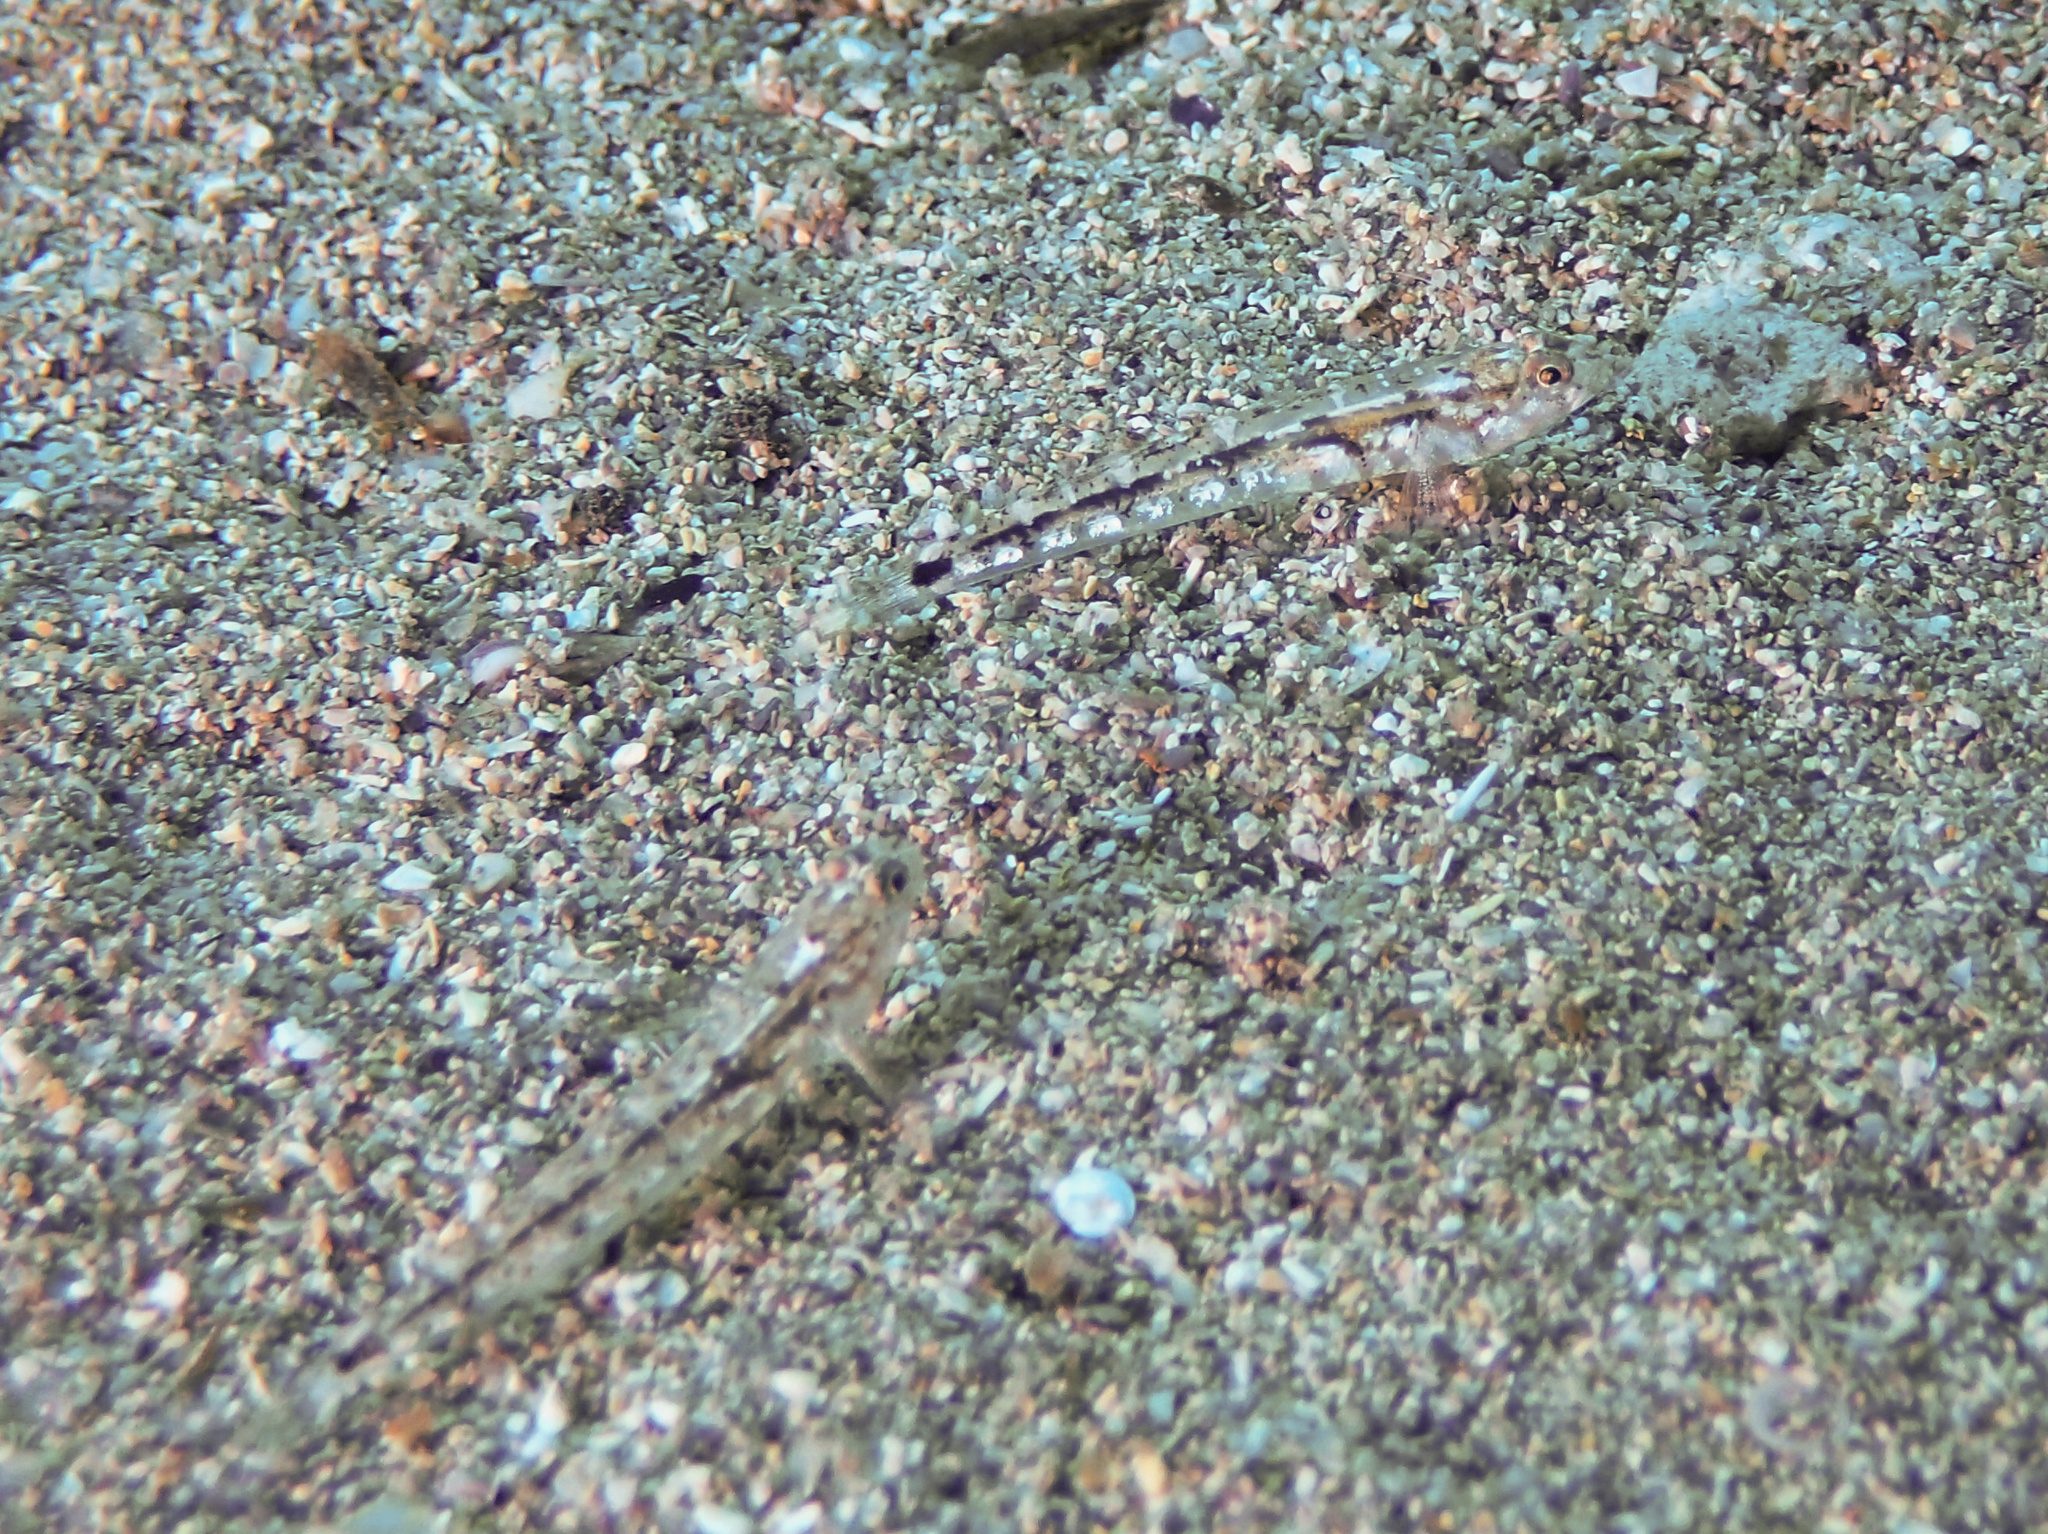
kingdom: Animalia
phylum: Chordata
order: Perciformes
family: Gobiidae
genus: Pomatoschistus
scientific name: Pomatoschistus bathi
